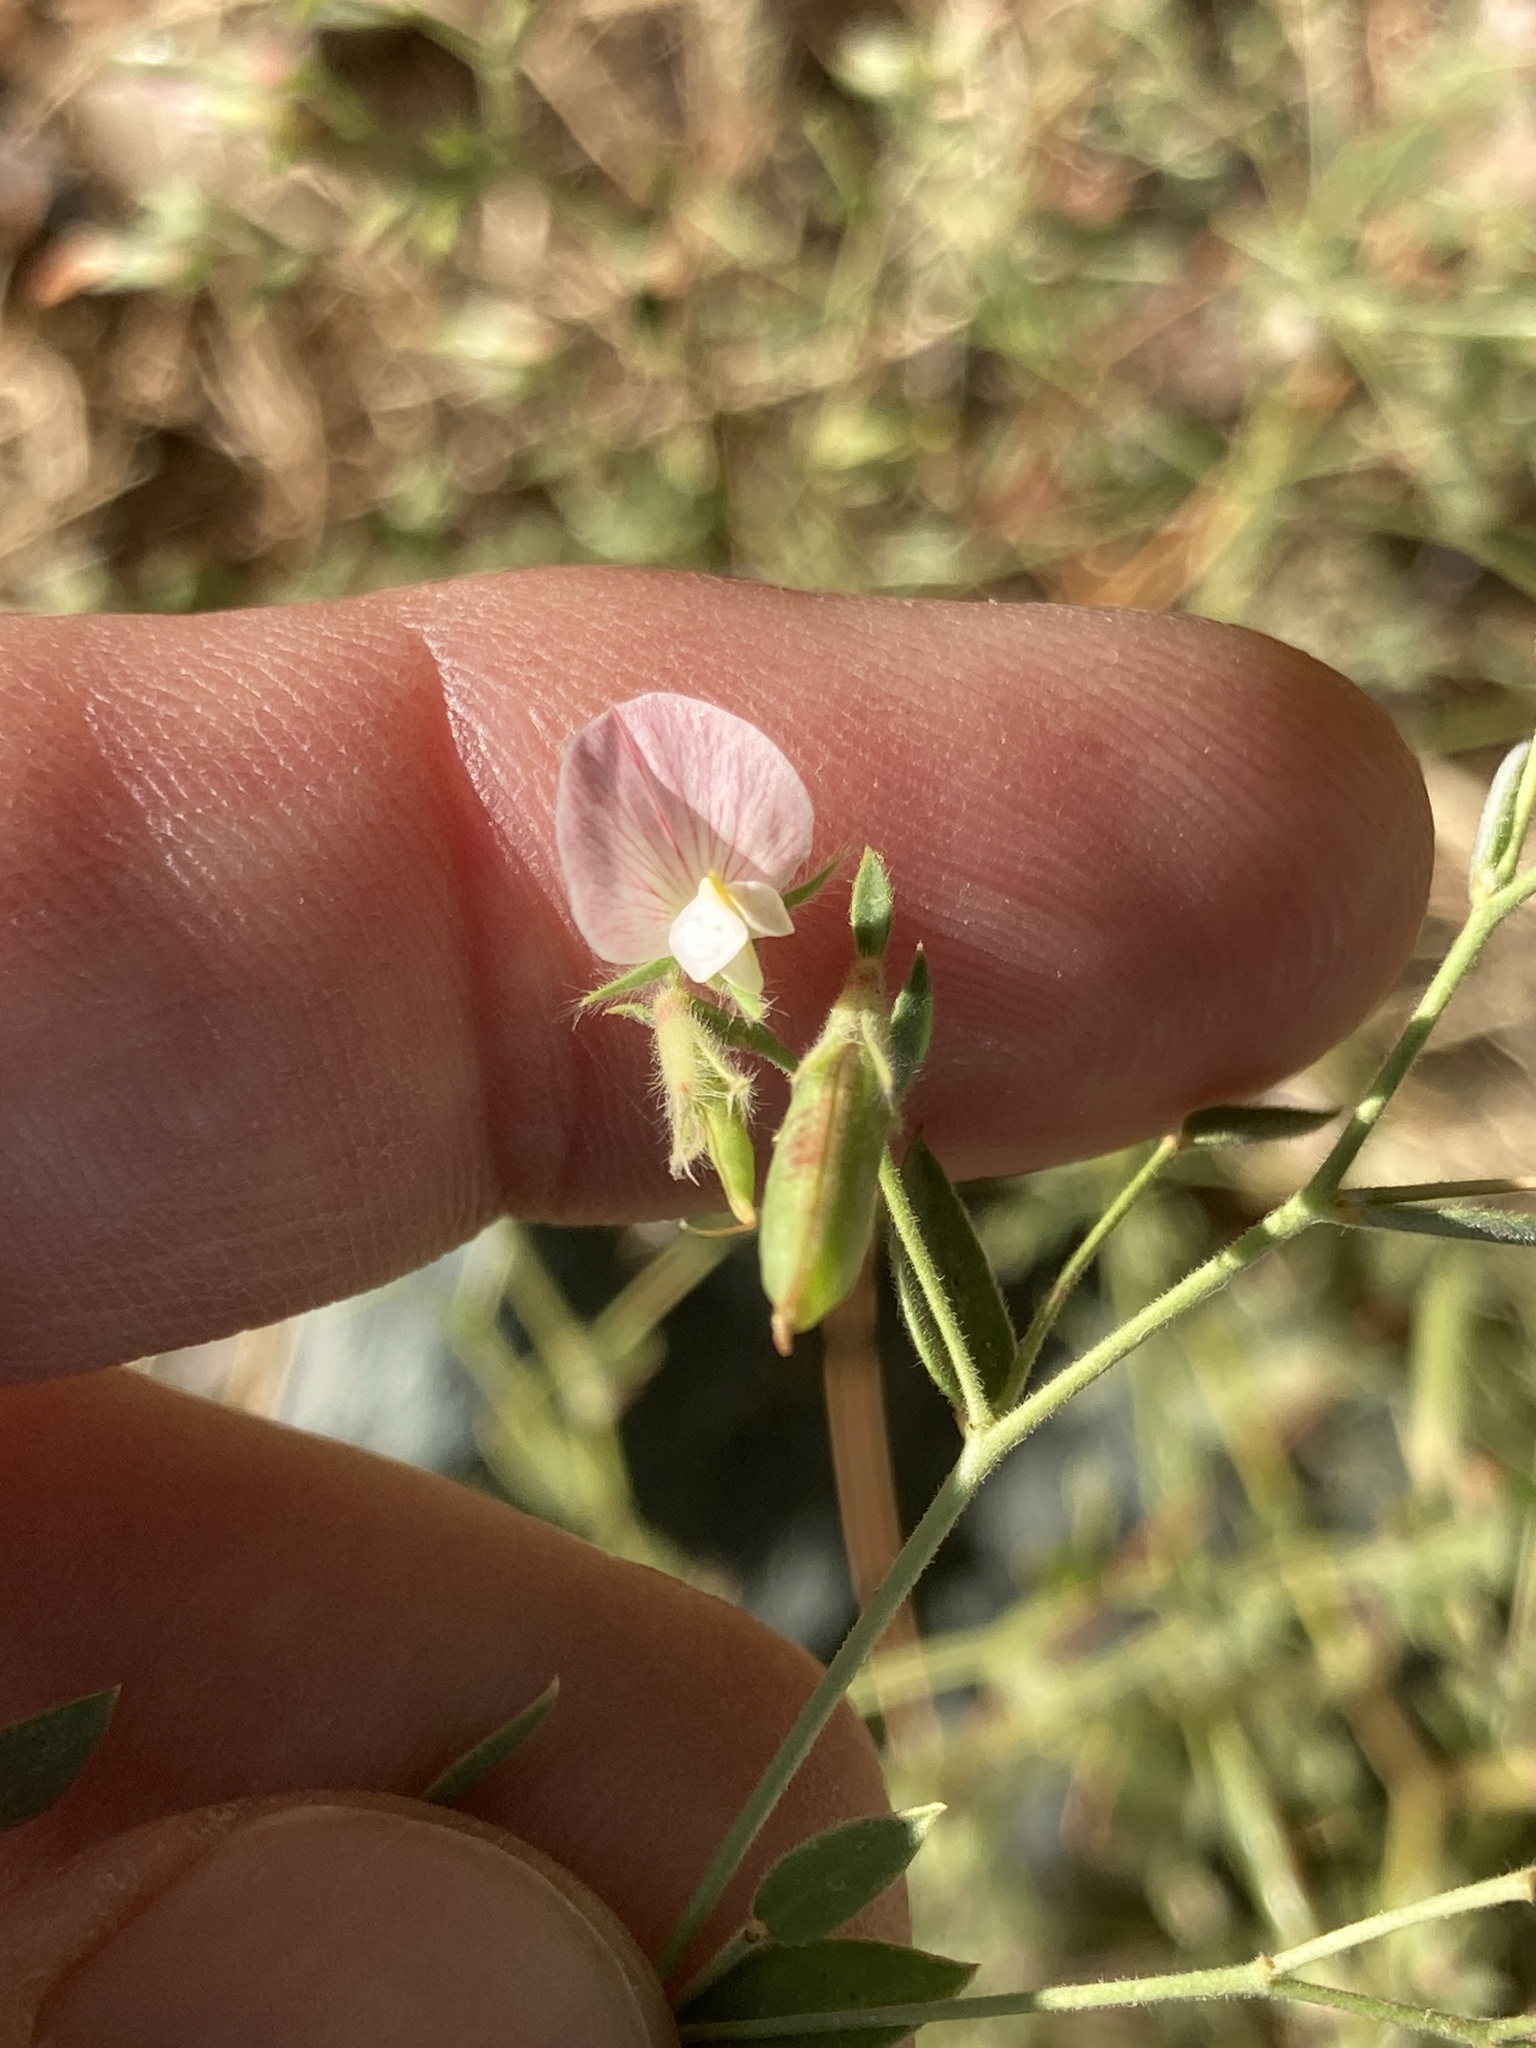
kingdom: Plantae
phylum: Tracheophyta
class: Magnoliopsida
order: Fabales
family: Fabaceae
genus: Acmispon
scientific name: Acmispon americanus
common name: American bird's-foot trefoil
